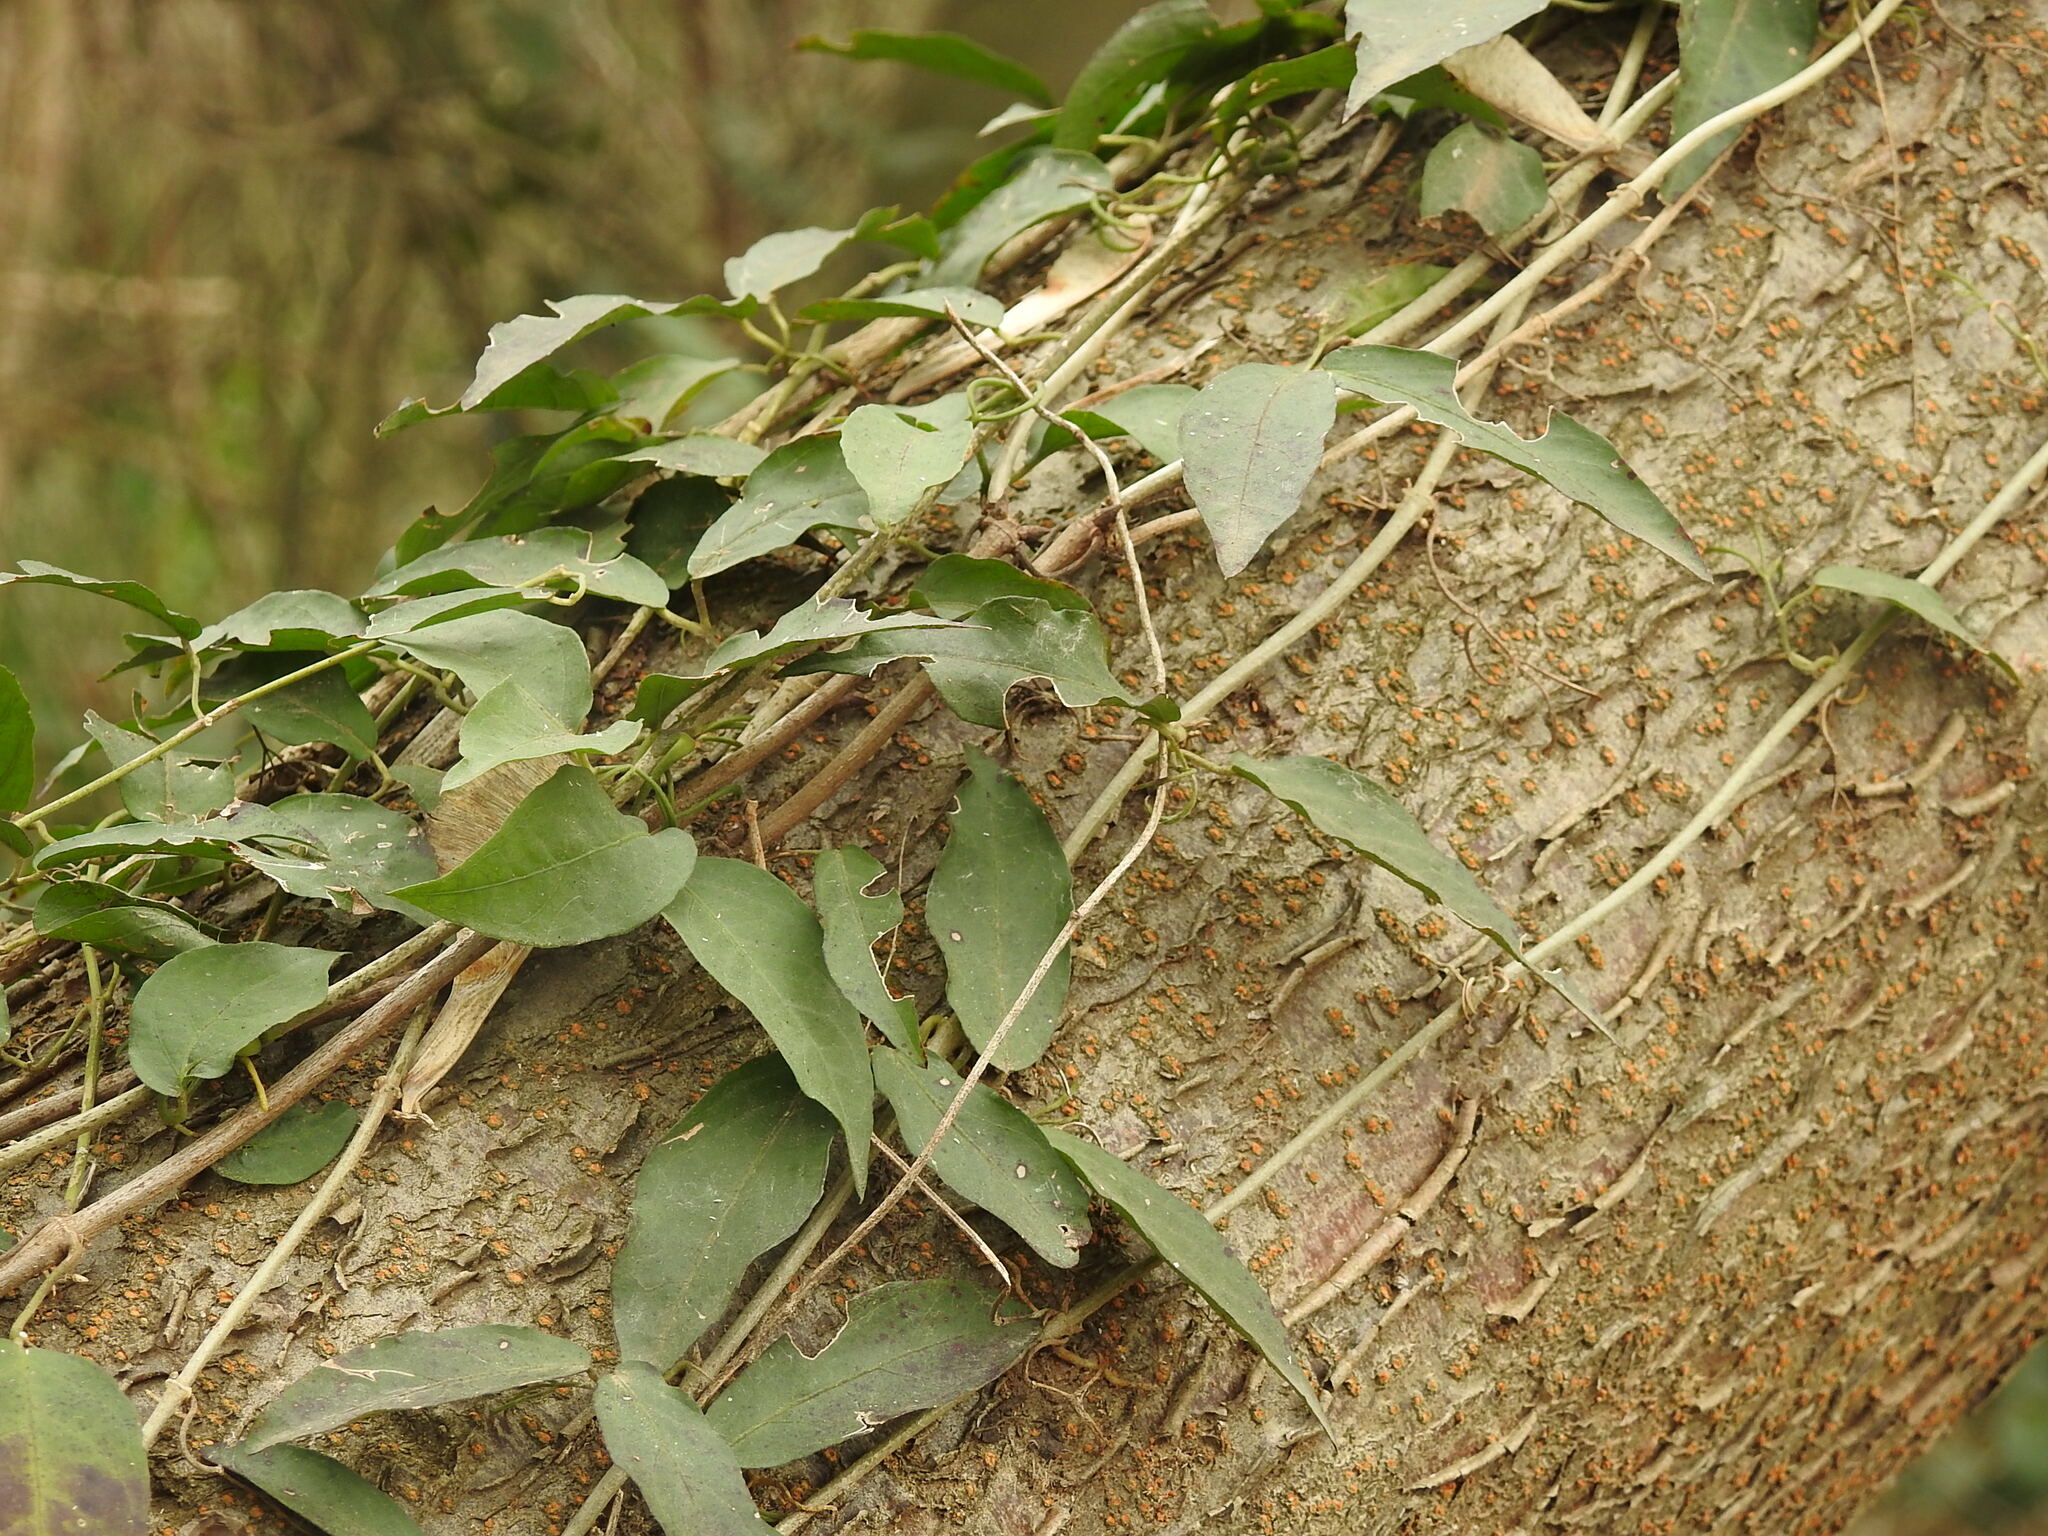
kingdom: Plantae
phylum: Tracheophyta
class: Magnoliopsida
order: Lamiales
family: Bignoniaceae
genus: Dolichandra
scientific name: Dolichandra unguis-cati
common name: Catclaw vine
